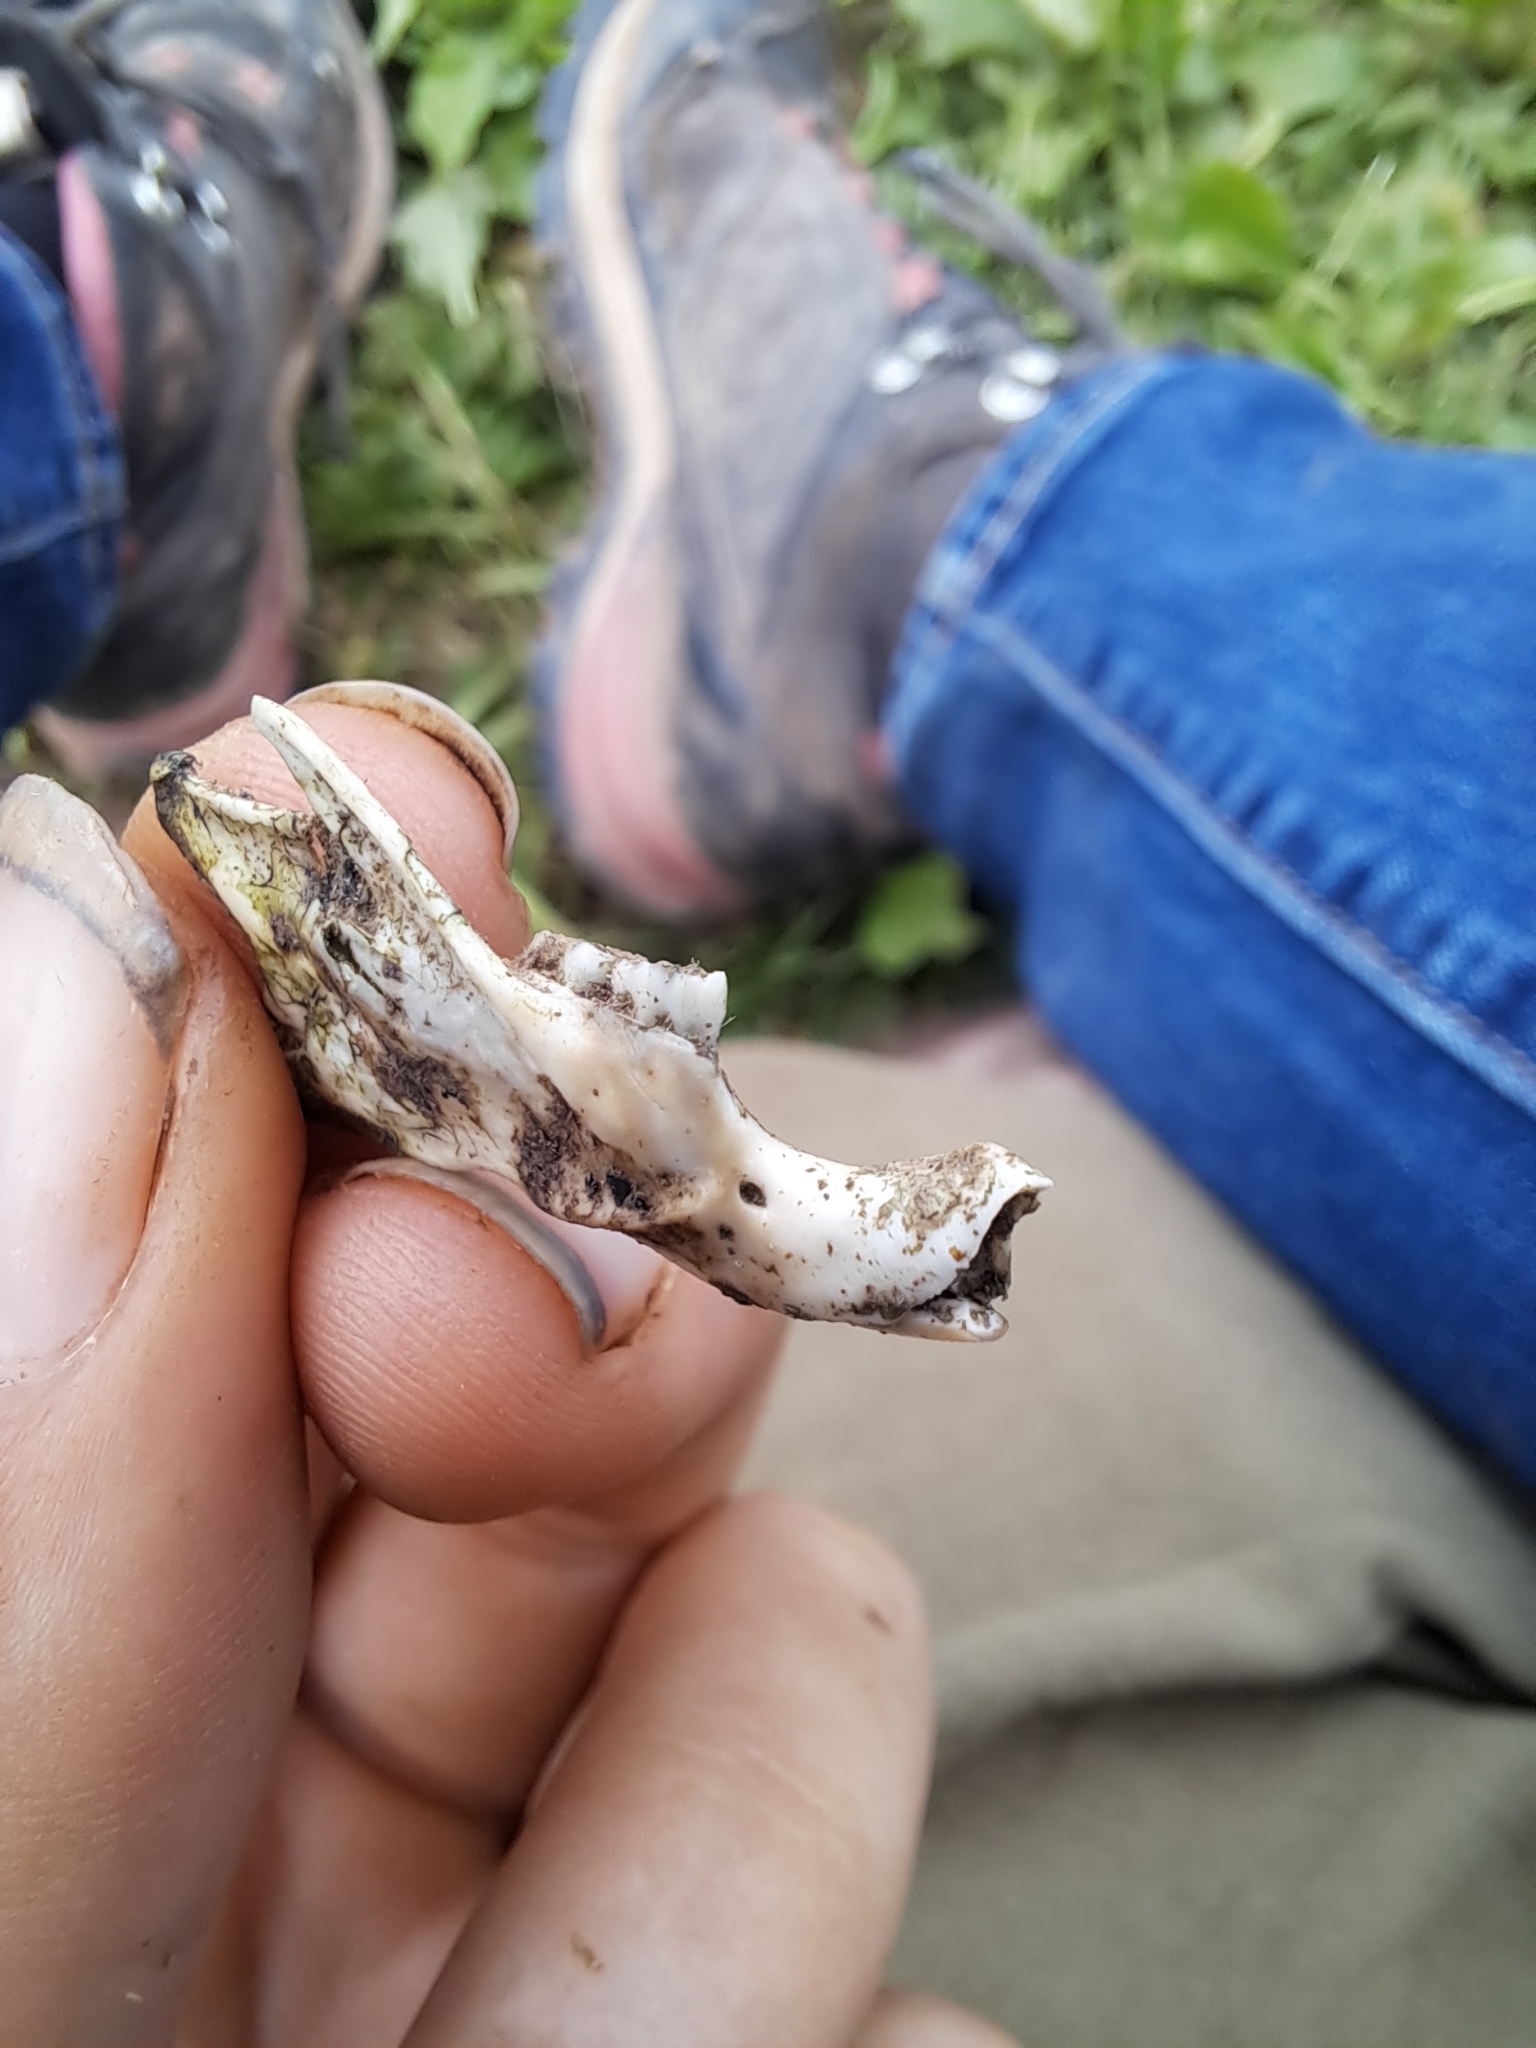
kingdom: Animalia
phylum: Chordata
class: Mammalia
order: Rodentia
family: Sciuridae
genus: Marmota
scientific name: Marmota monax
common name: Groundhog
